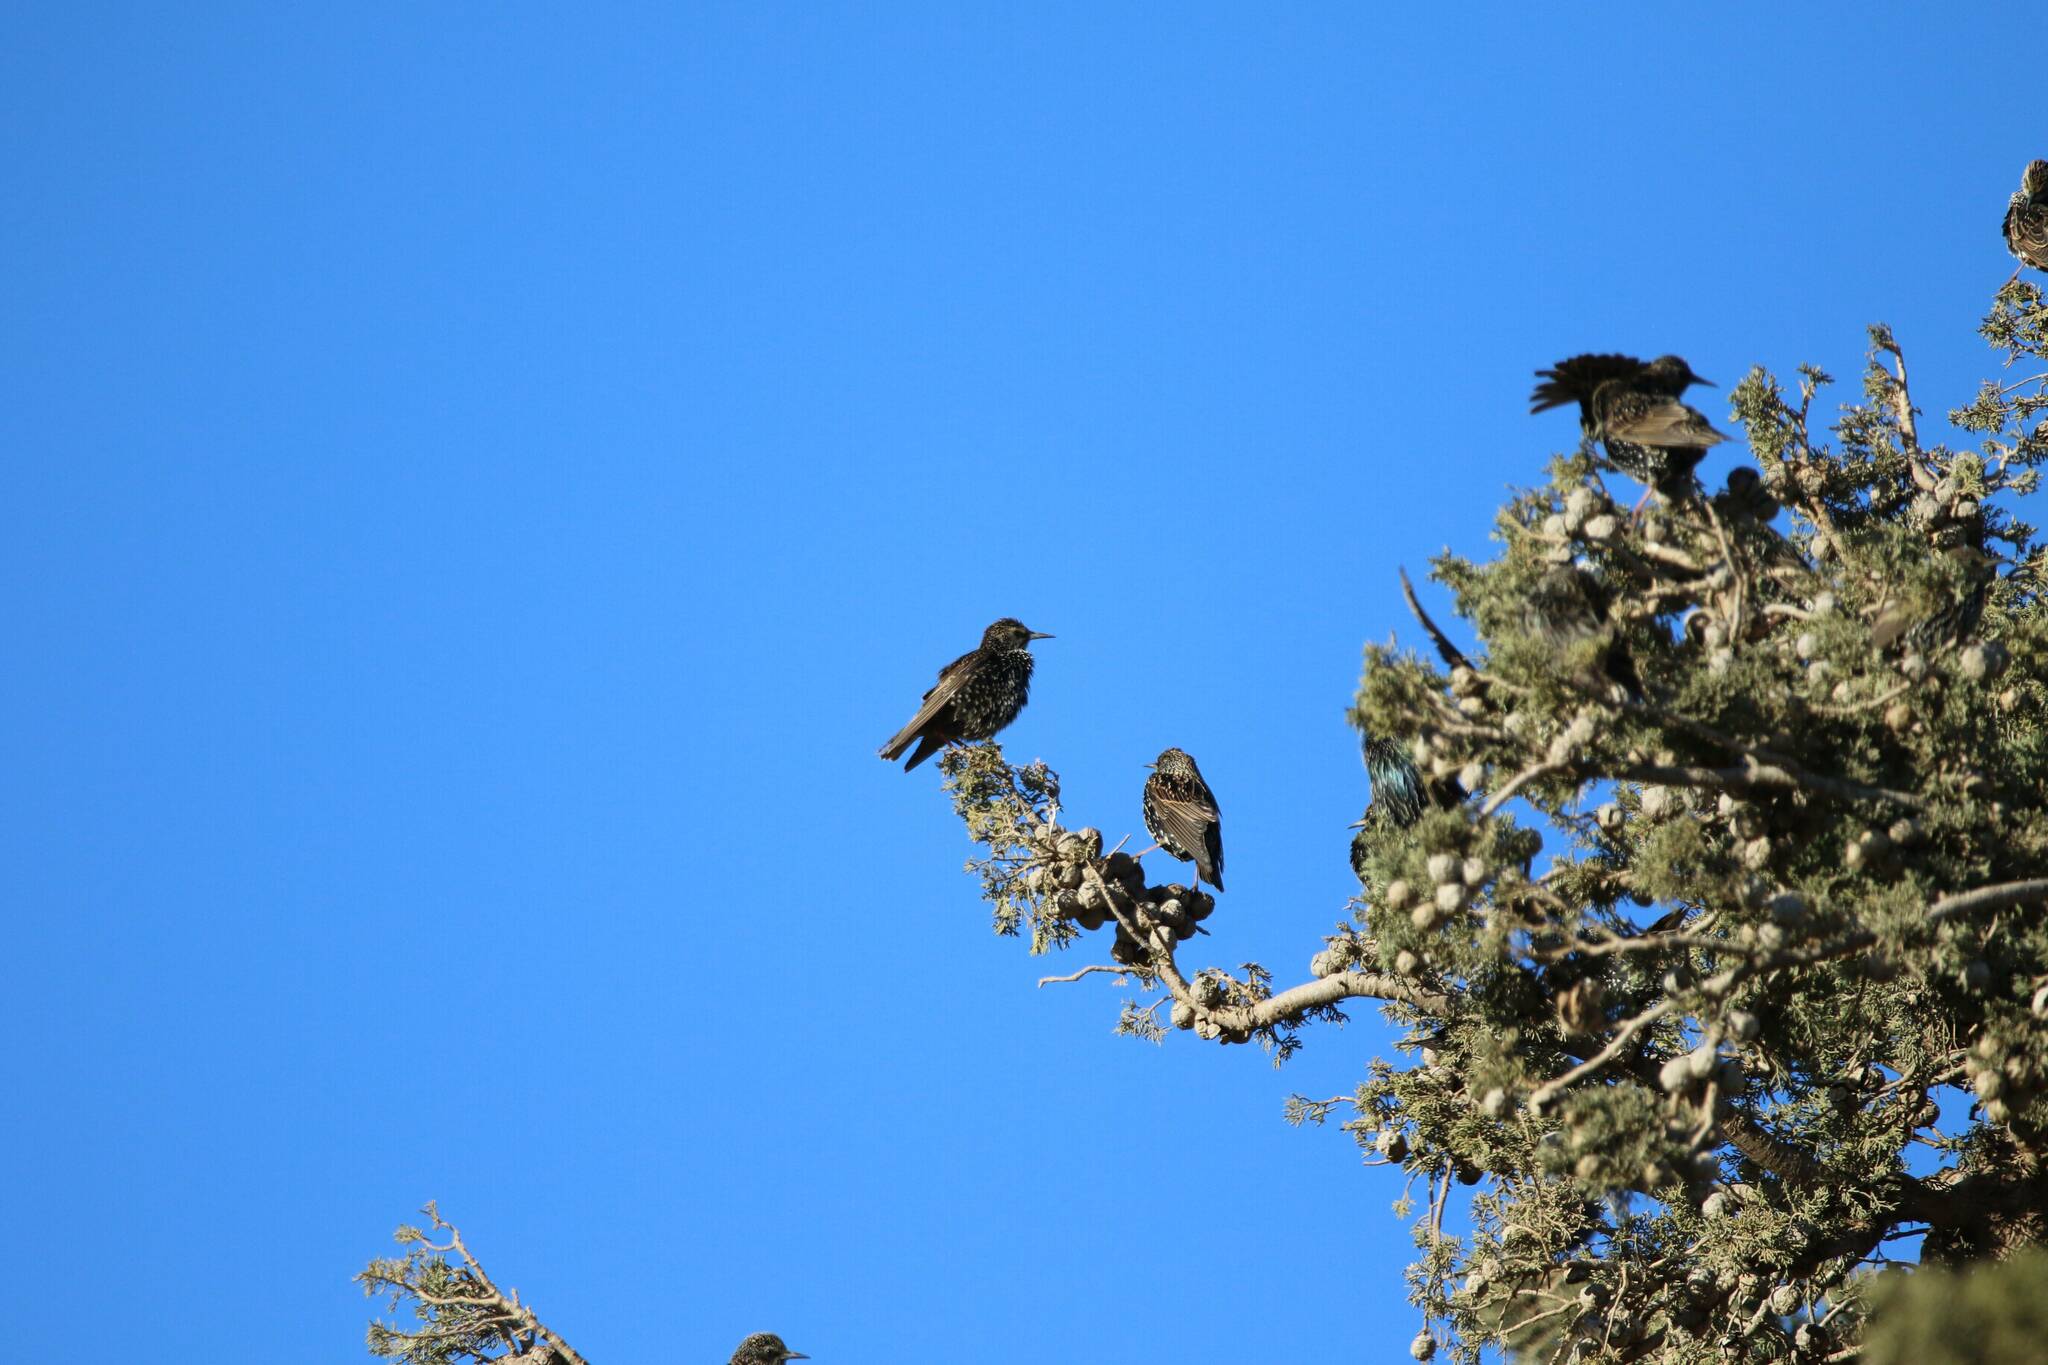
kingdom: Animalia
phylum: Chordata
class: Aves
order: Passeriformes
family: Sturnidae
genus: Sturnus
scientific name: Sturnus vulgaris
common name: Common starling
